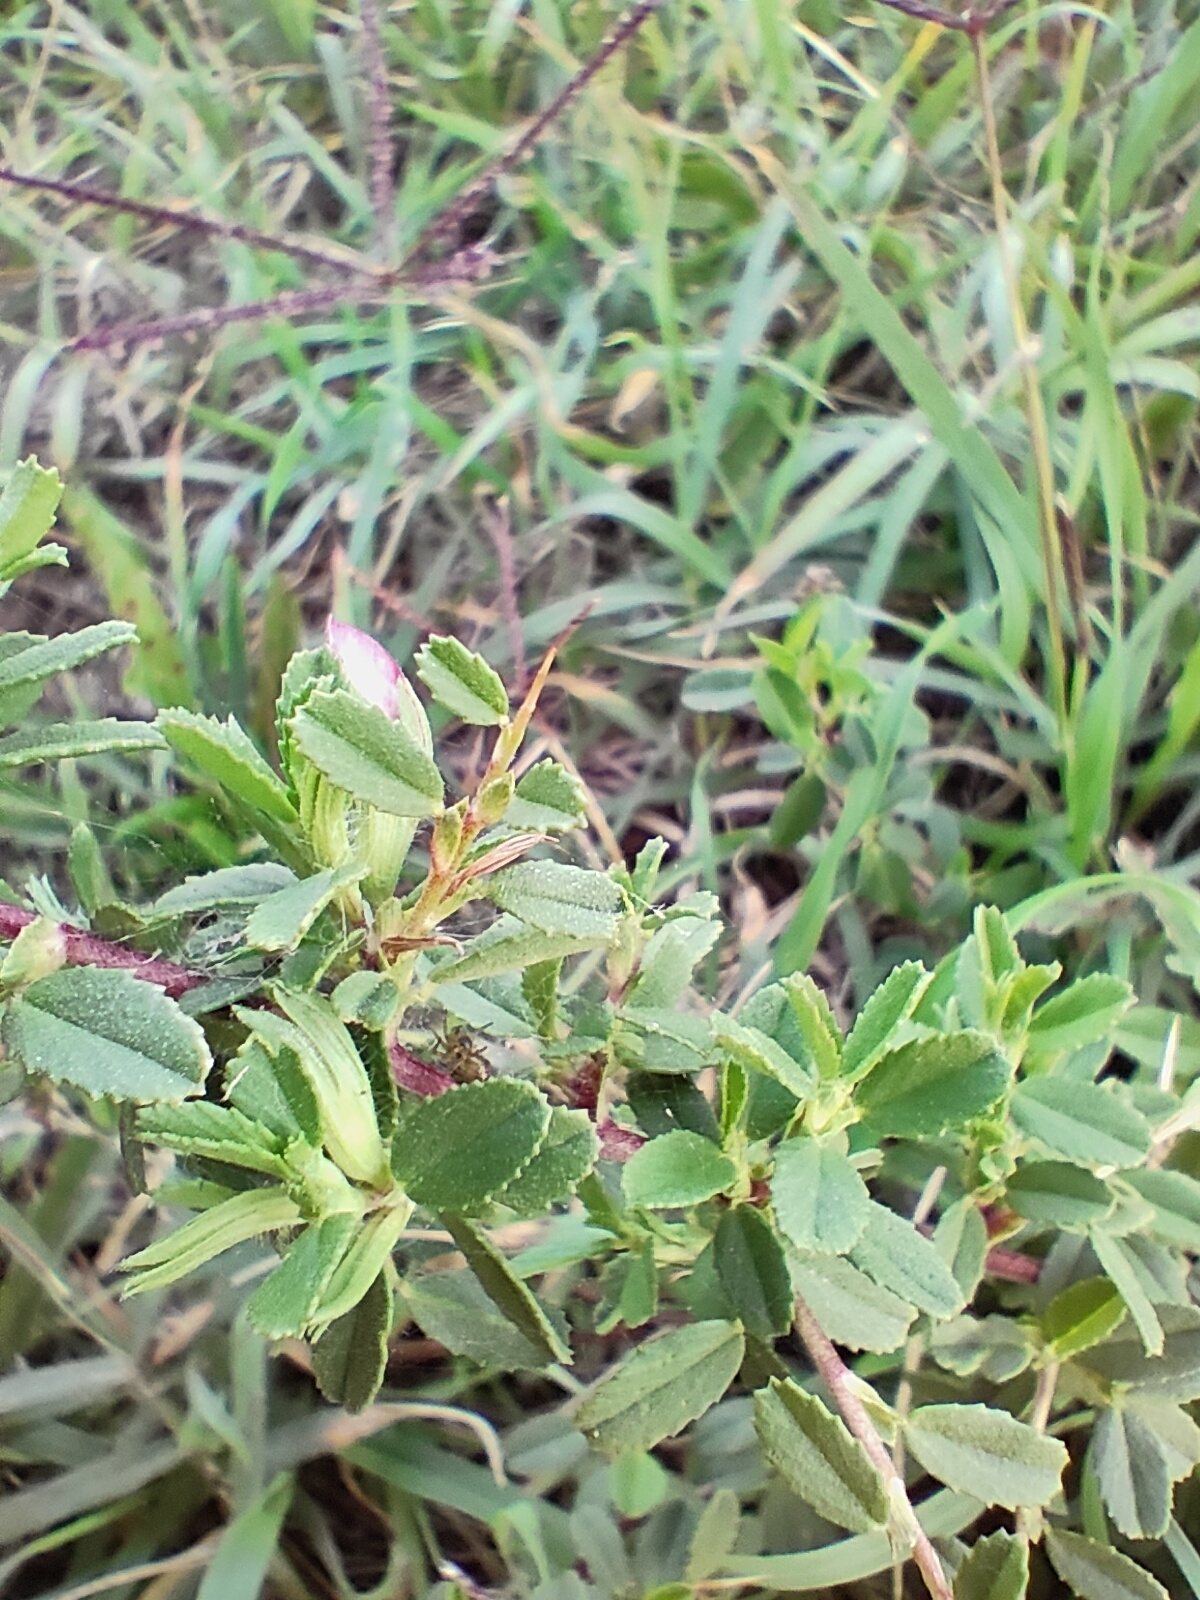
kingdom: Plantae
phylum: Tracheophyta
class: Magnoliopsida
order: Fabales
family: Fabaceae
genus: Ononis
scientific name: Ononis spinosa
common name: Spiny restharrow
